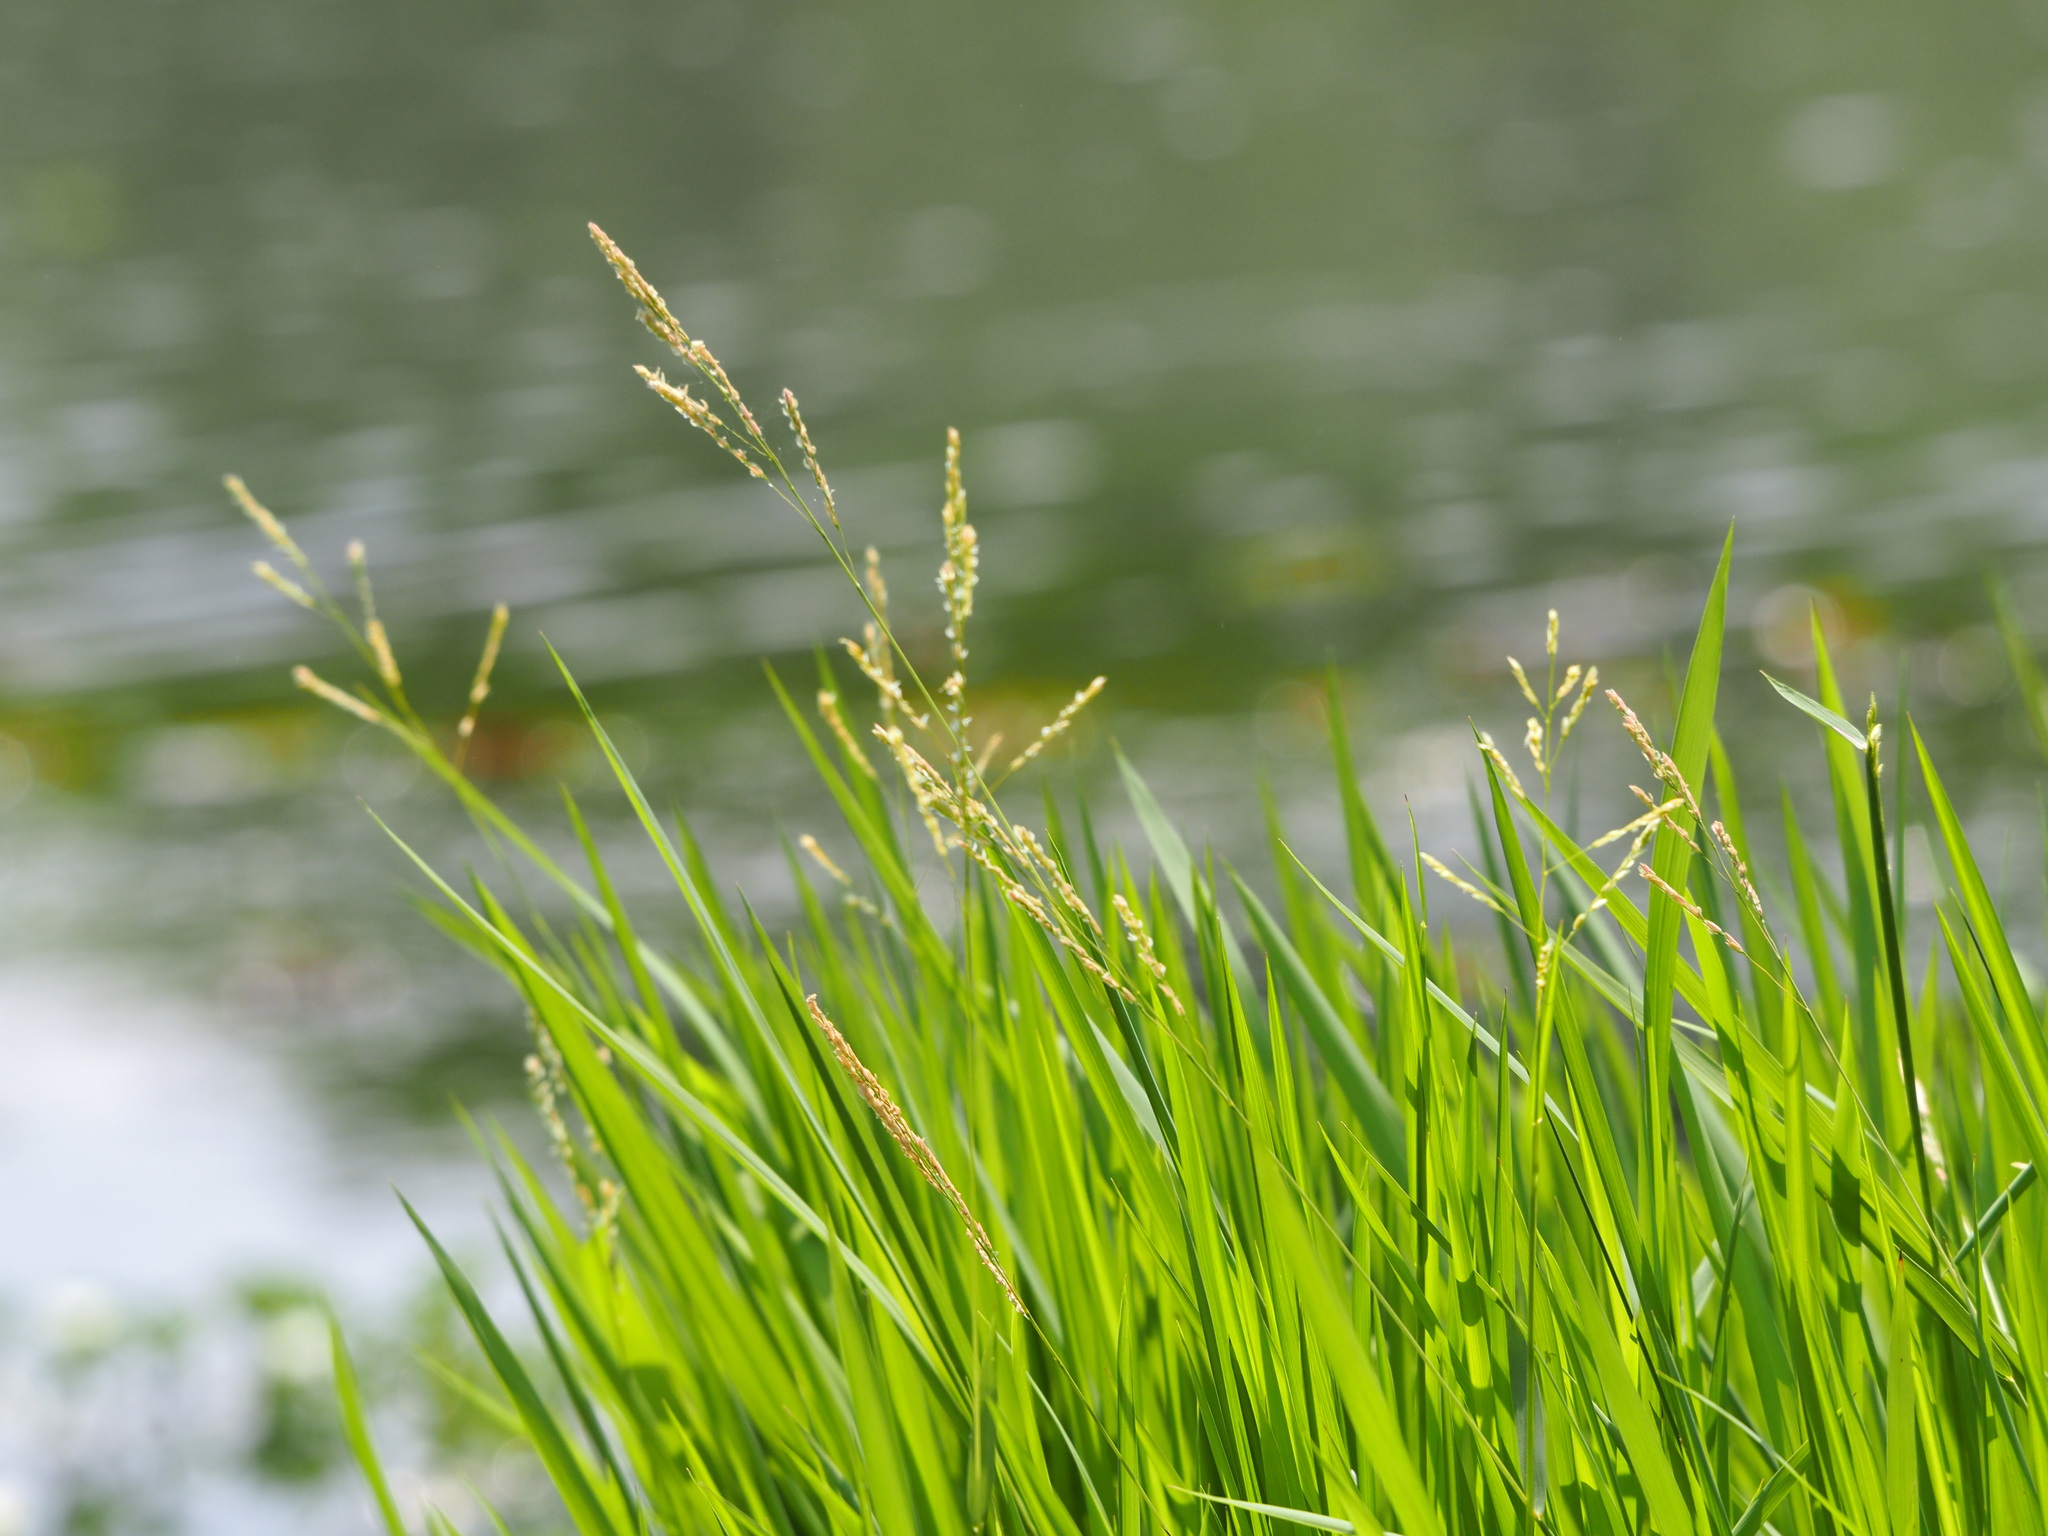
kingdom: Plantae
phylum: Tracheophyta
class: Liliopsida
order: Poales
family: Poaceae
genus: Leersia
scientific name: Leersia hexandra
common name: Southern cut grass
